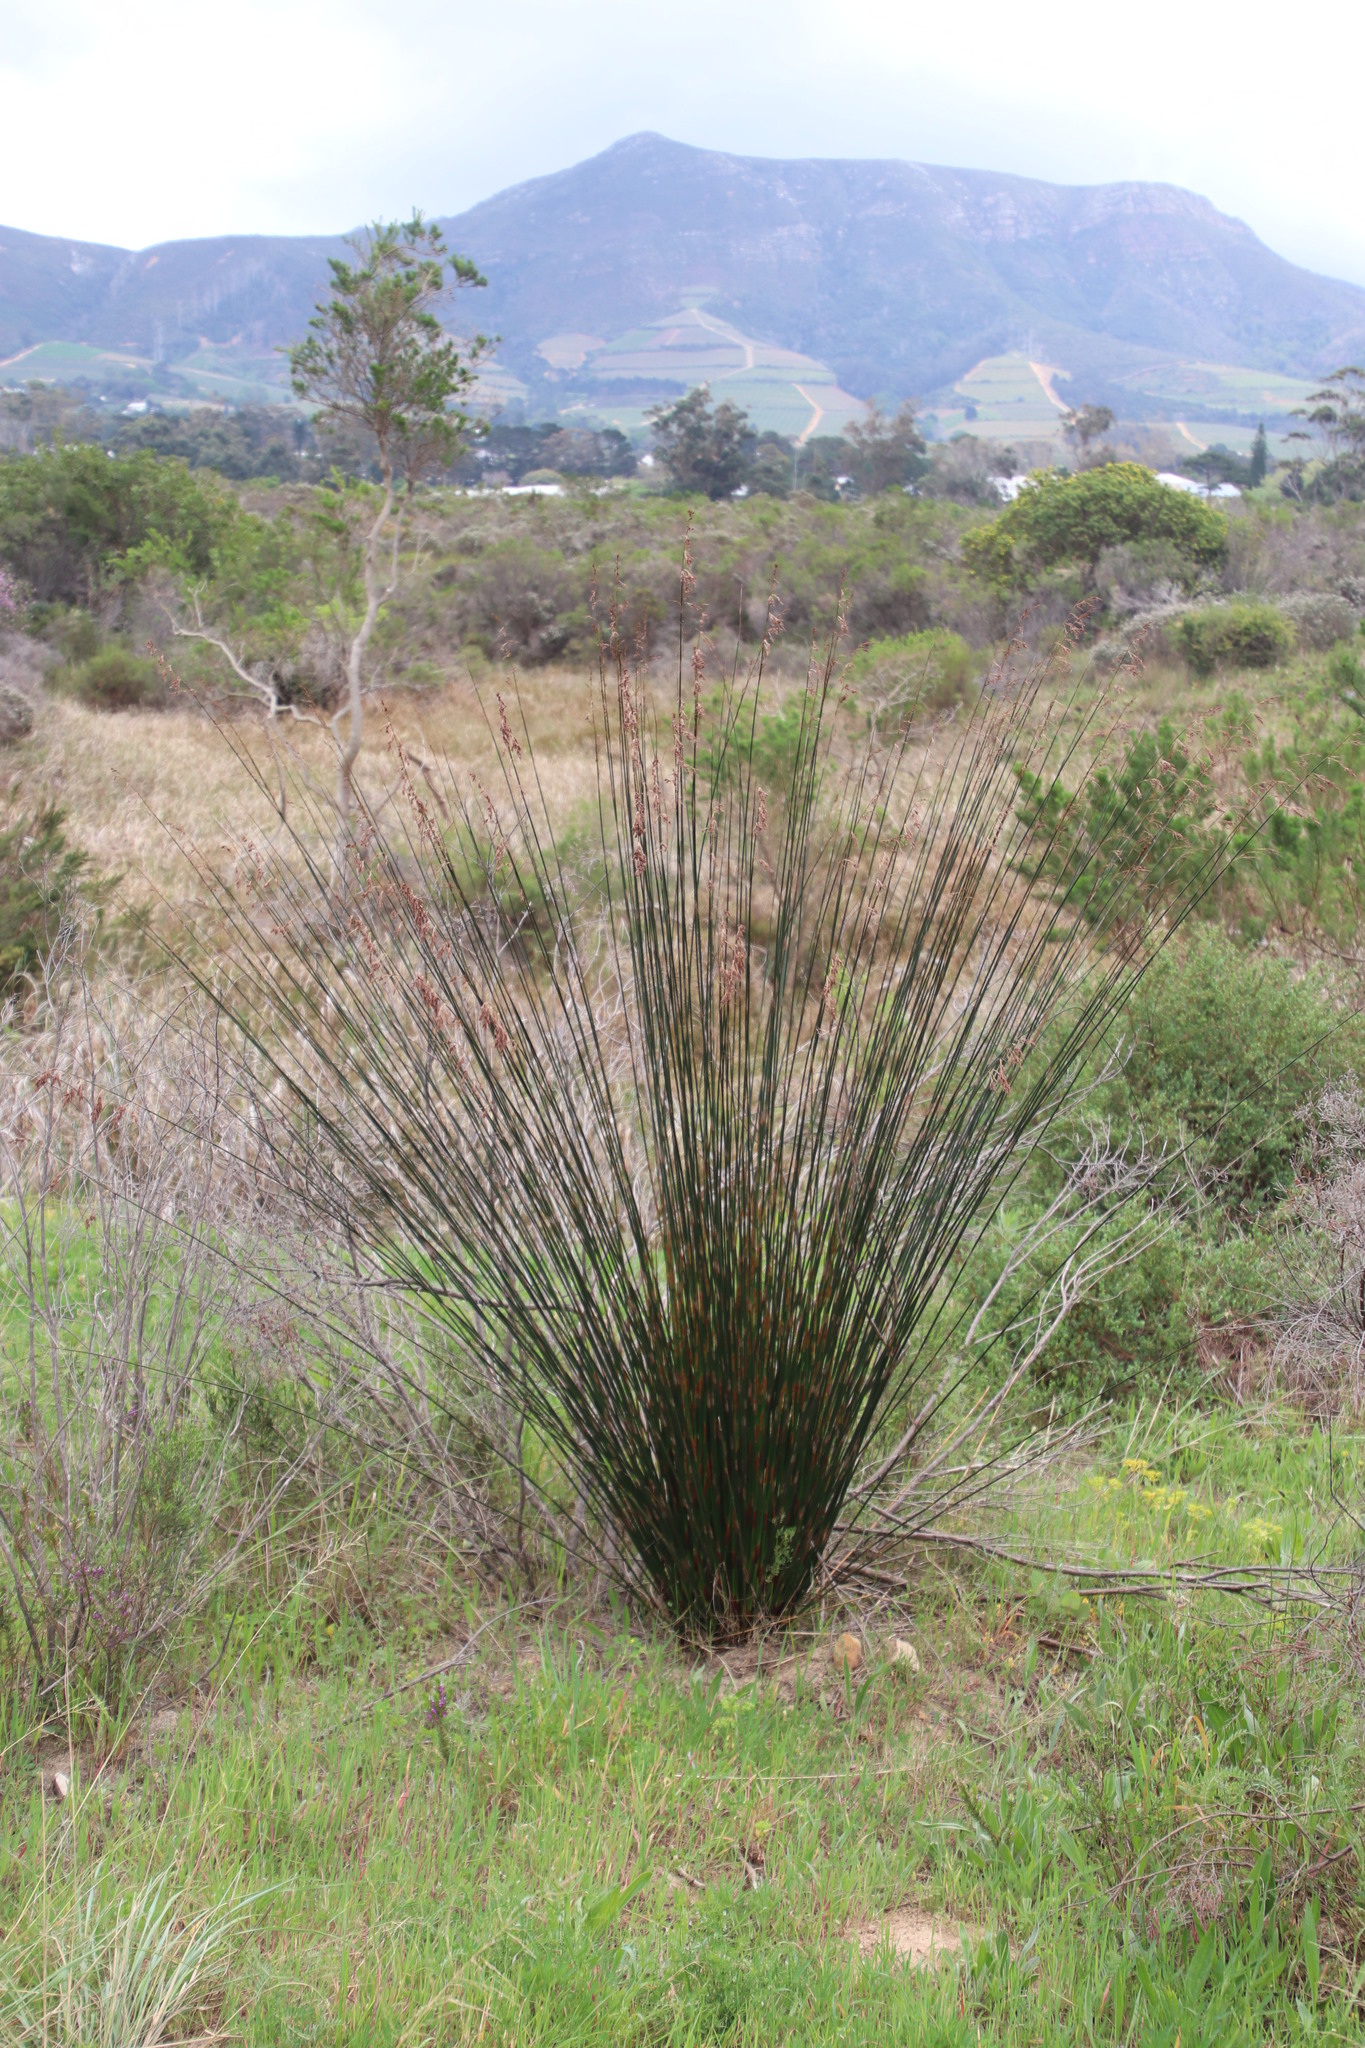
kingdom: Plantae
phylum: Tracheophyta
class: Liliopsida
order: Poales
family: Restionaceae
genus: Thamnochortus
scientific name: Thamnochortus insignis
